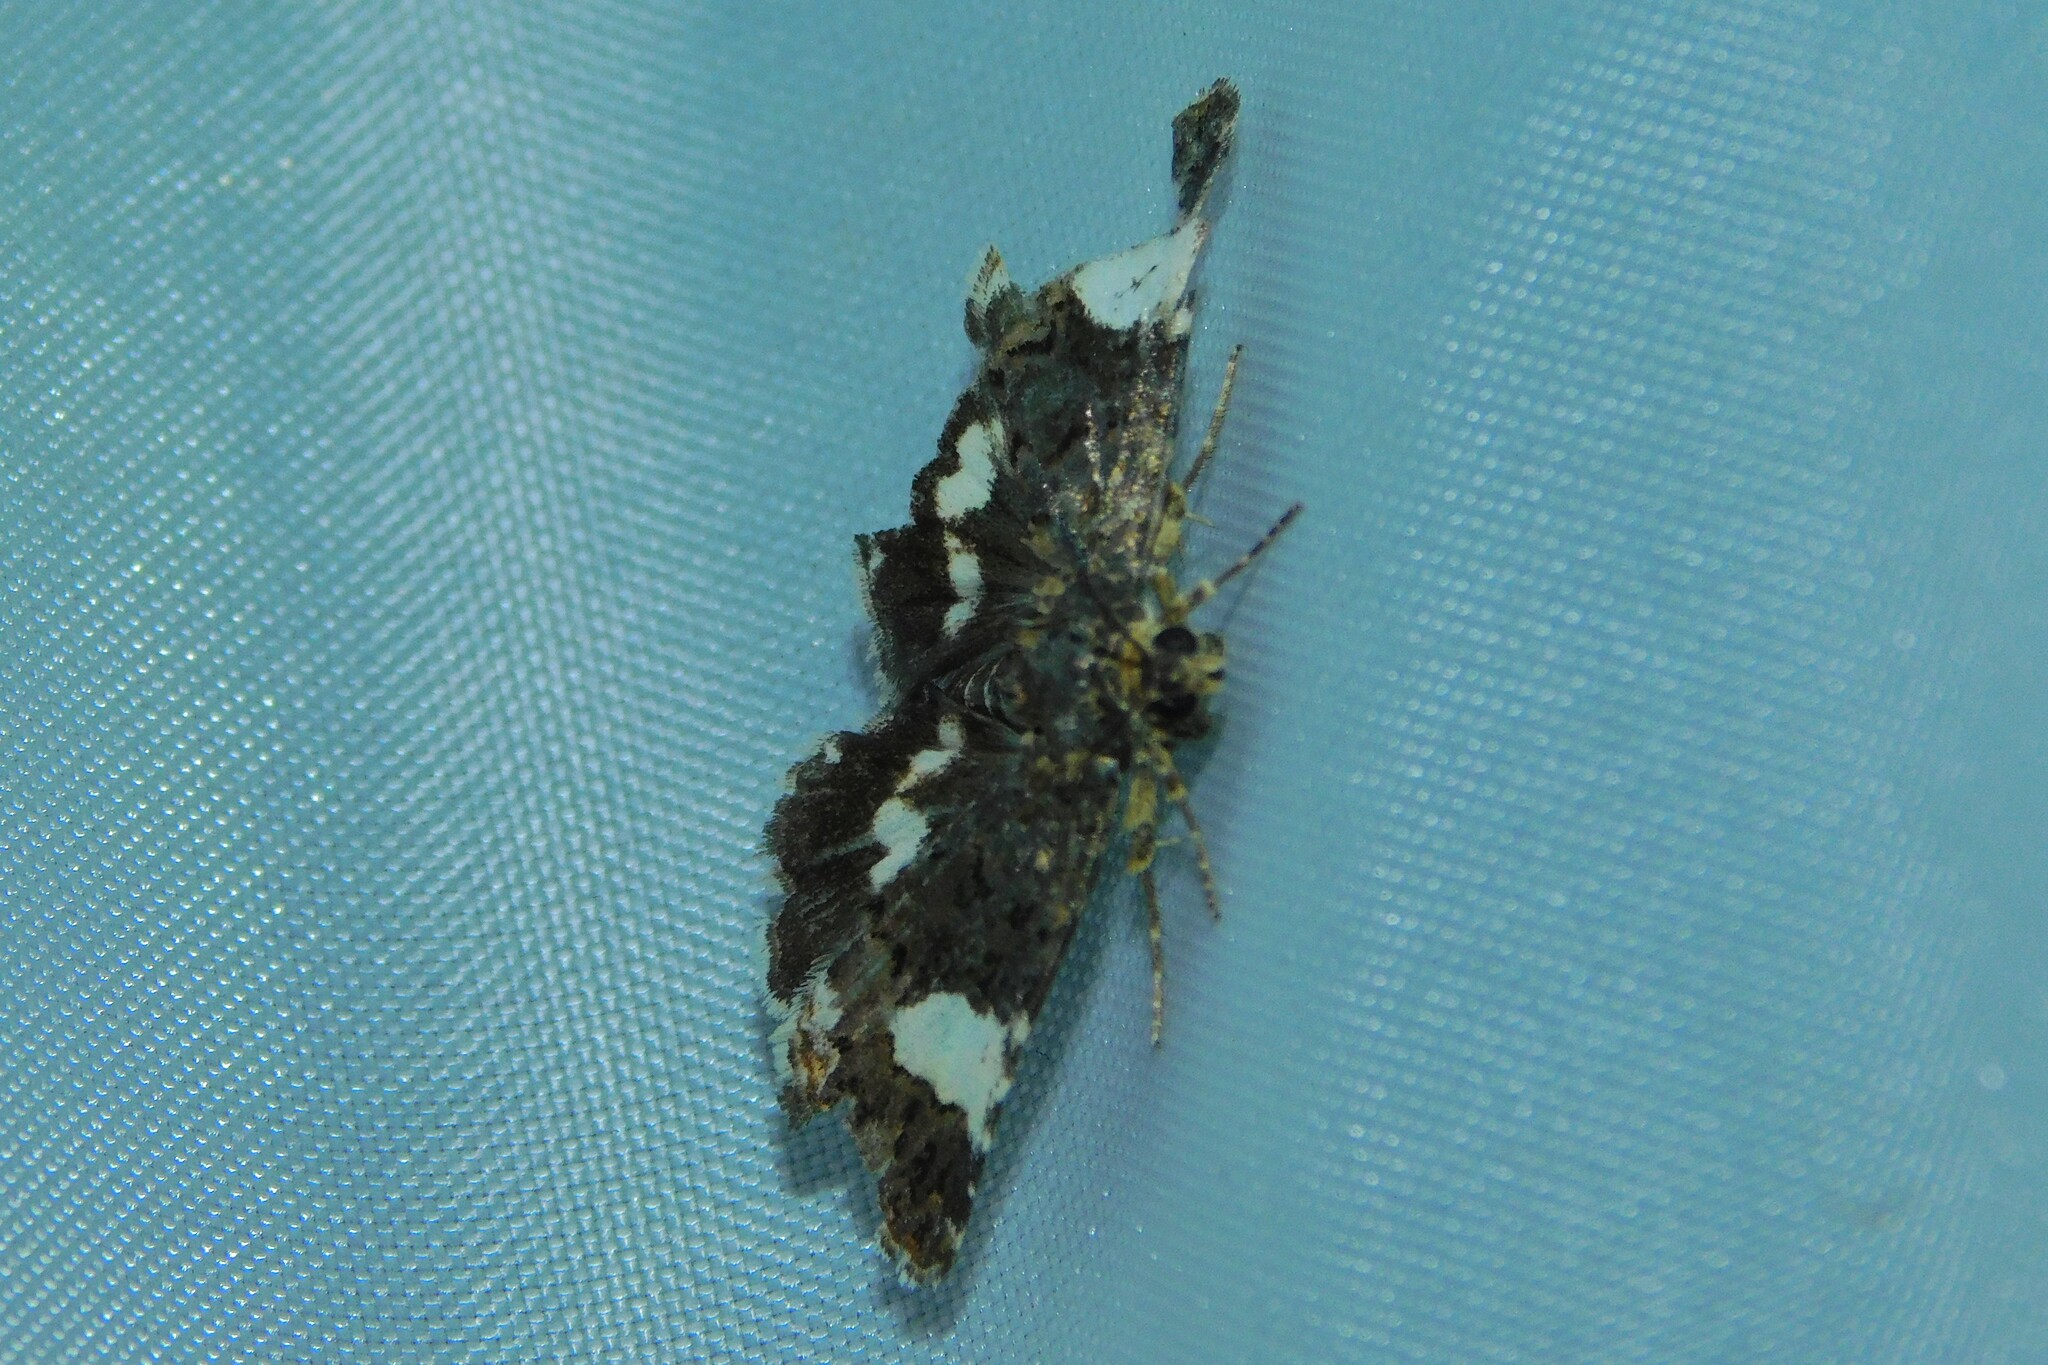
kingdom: Animalia
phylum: Arthropoda
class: Insecta
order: Lepidoptera
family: Erebidae
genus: Tyta
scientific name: Tyta luctuosa
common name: Four-spotted
